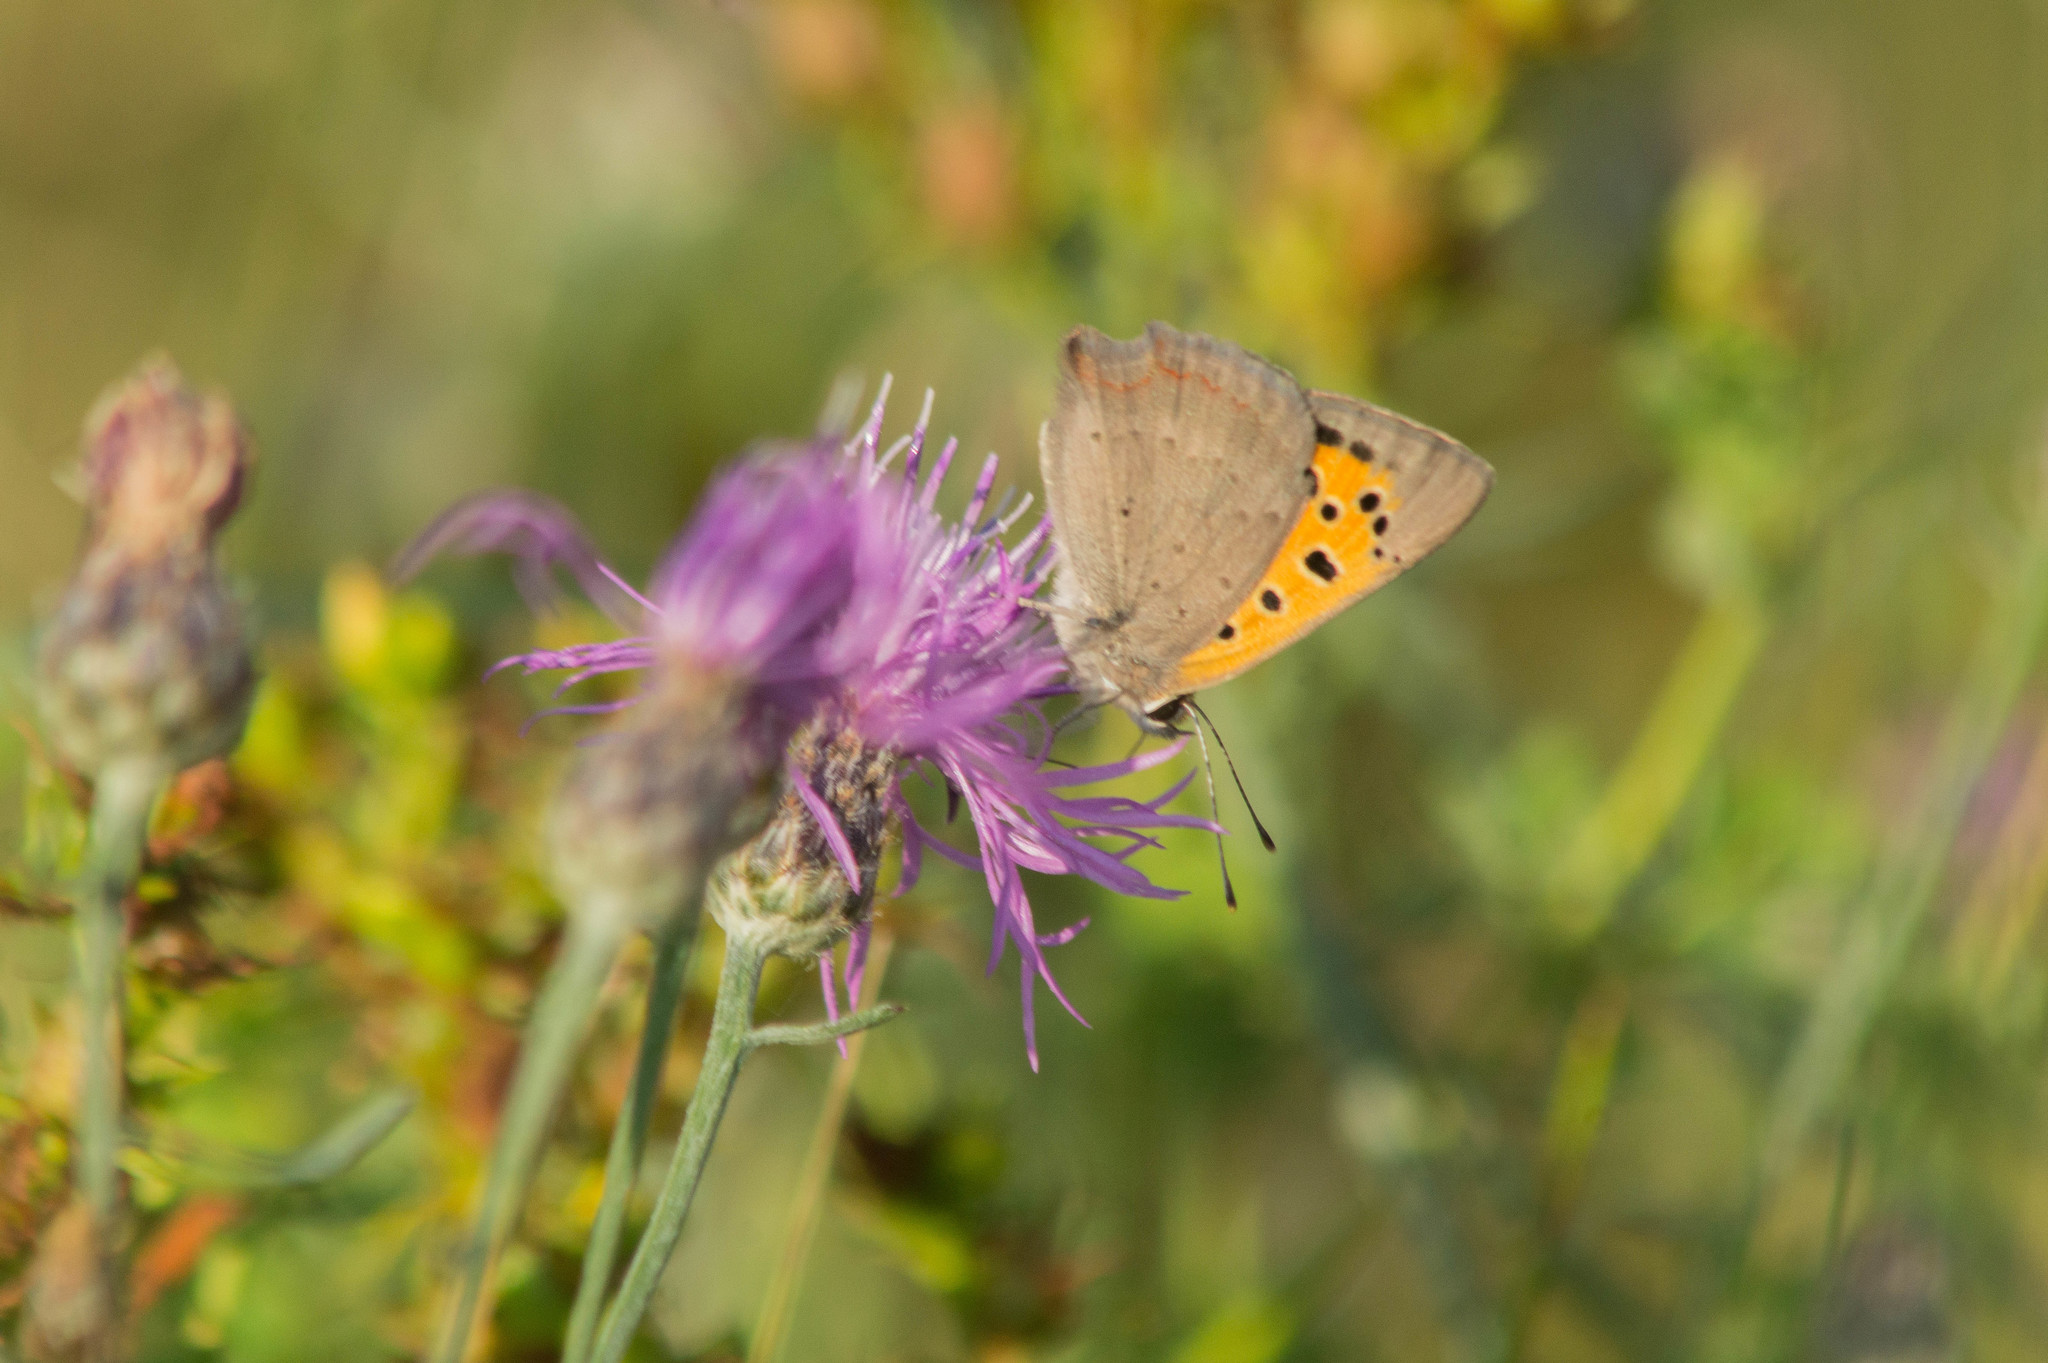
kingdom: Animalia
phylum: Arthropoda
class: Insecta
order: Lepidoptera
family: Lycaenidae
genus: Lycaena
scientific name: Lycaena phlaeas
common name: Small copper
